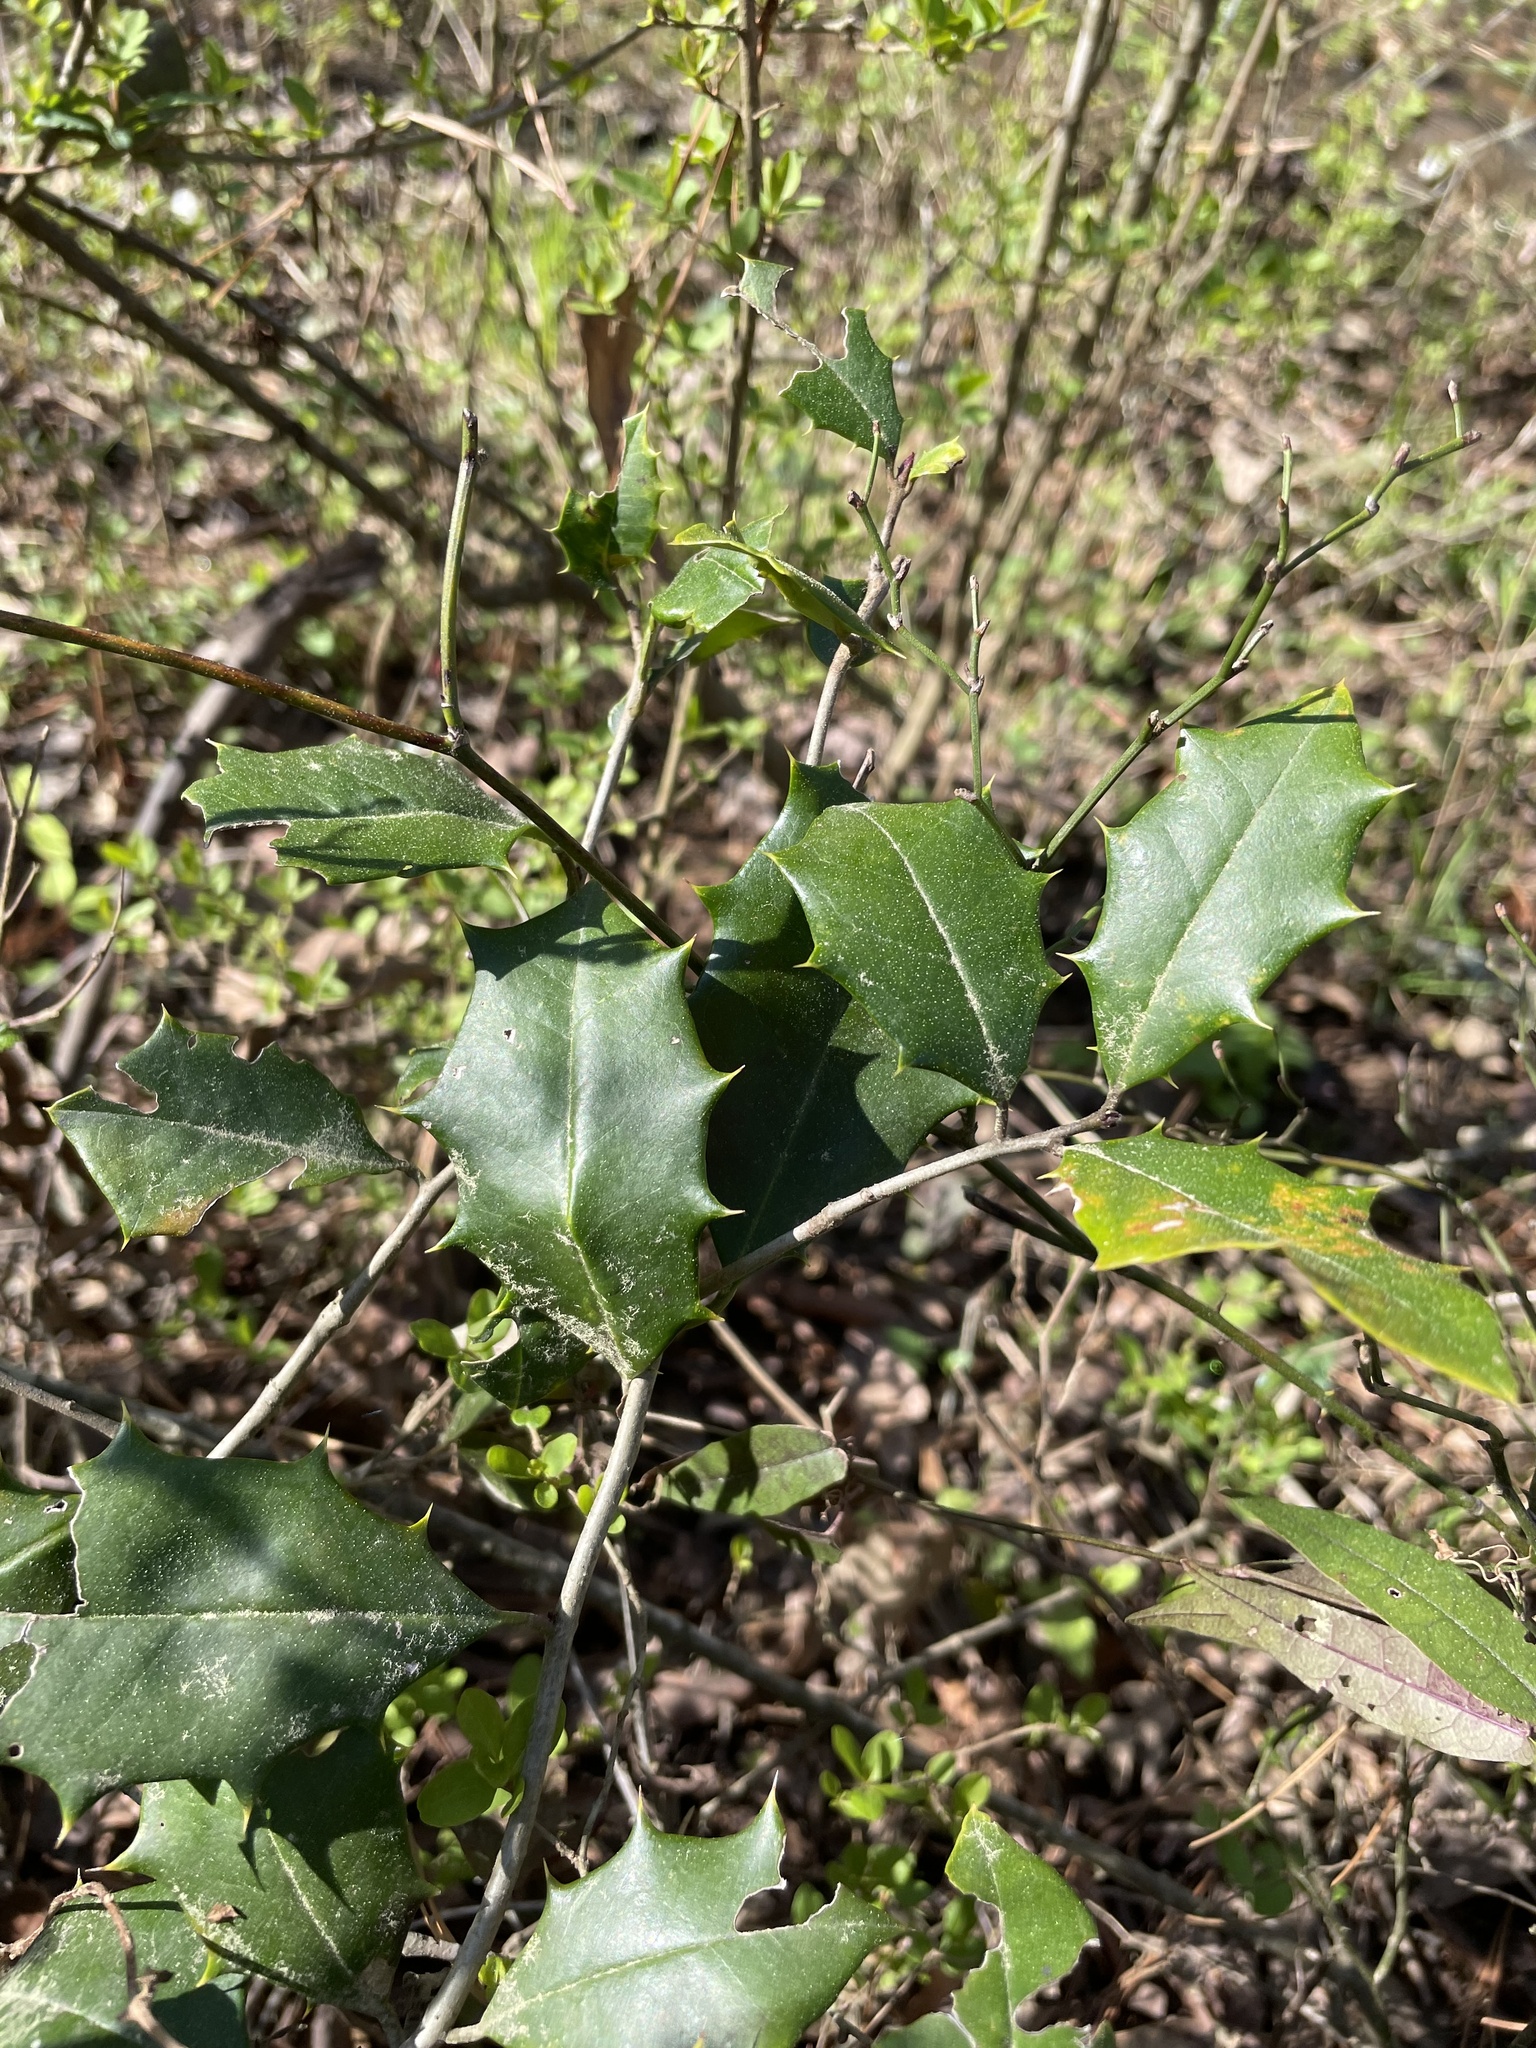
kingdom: Plantae
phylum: Tracheophyta
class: Magnoliopsida
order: Aquifoliales
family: Aquifoliaceae
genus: Ilex
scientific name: Ilex opaca
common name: American holly
